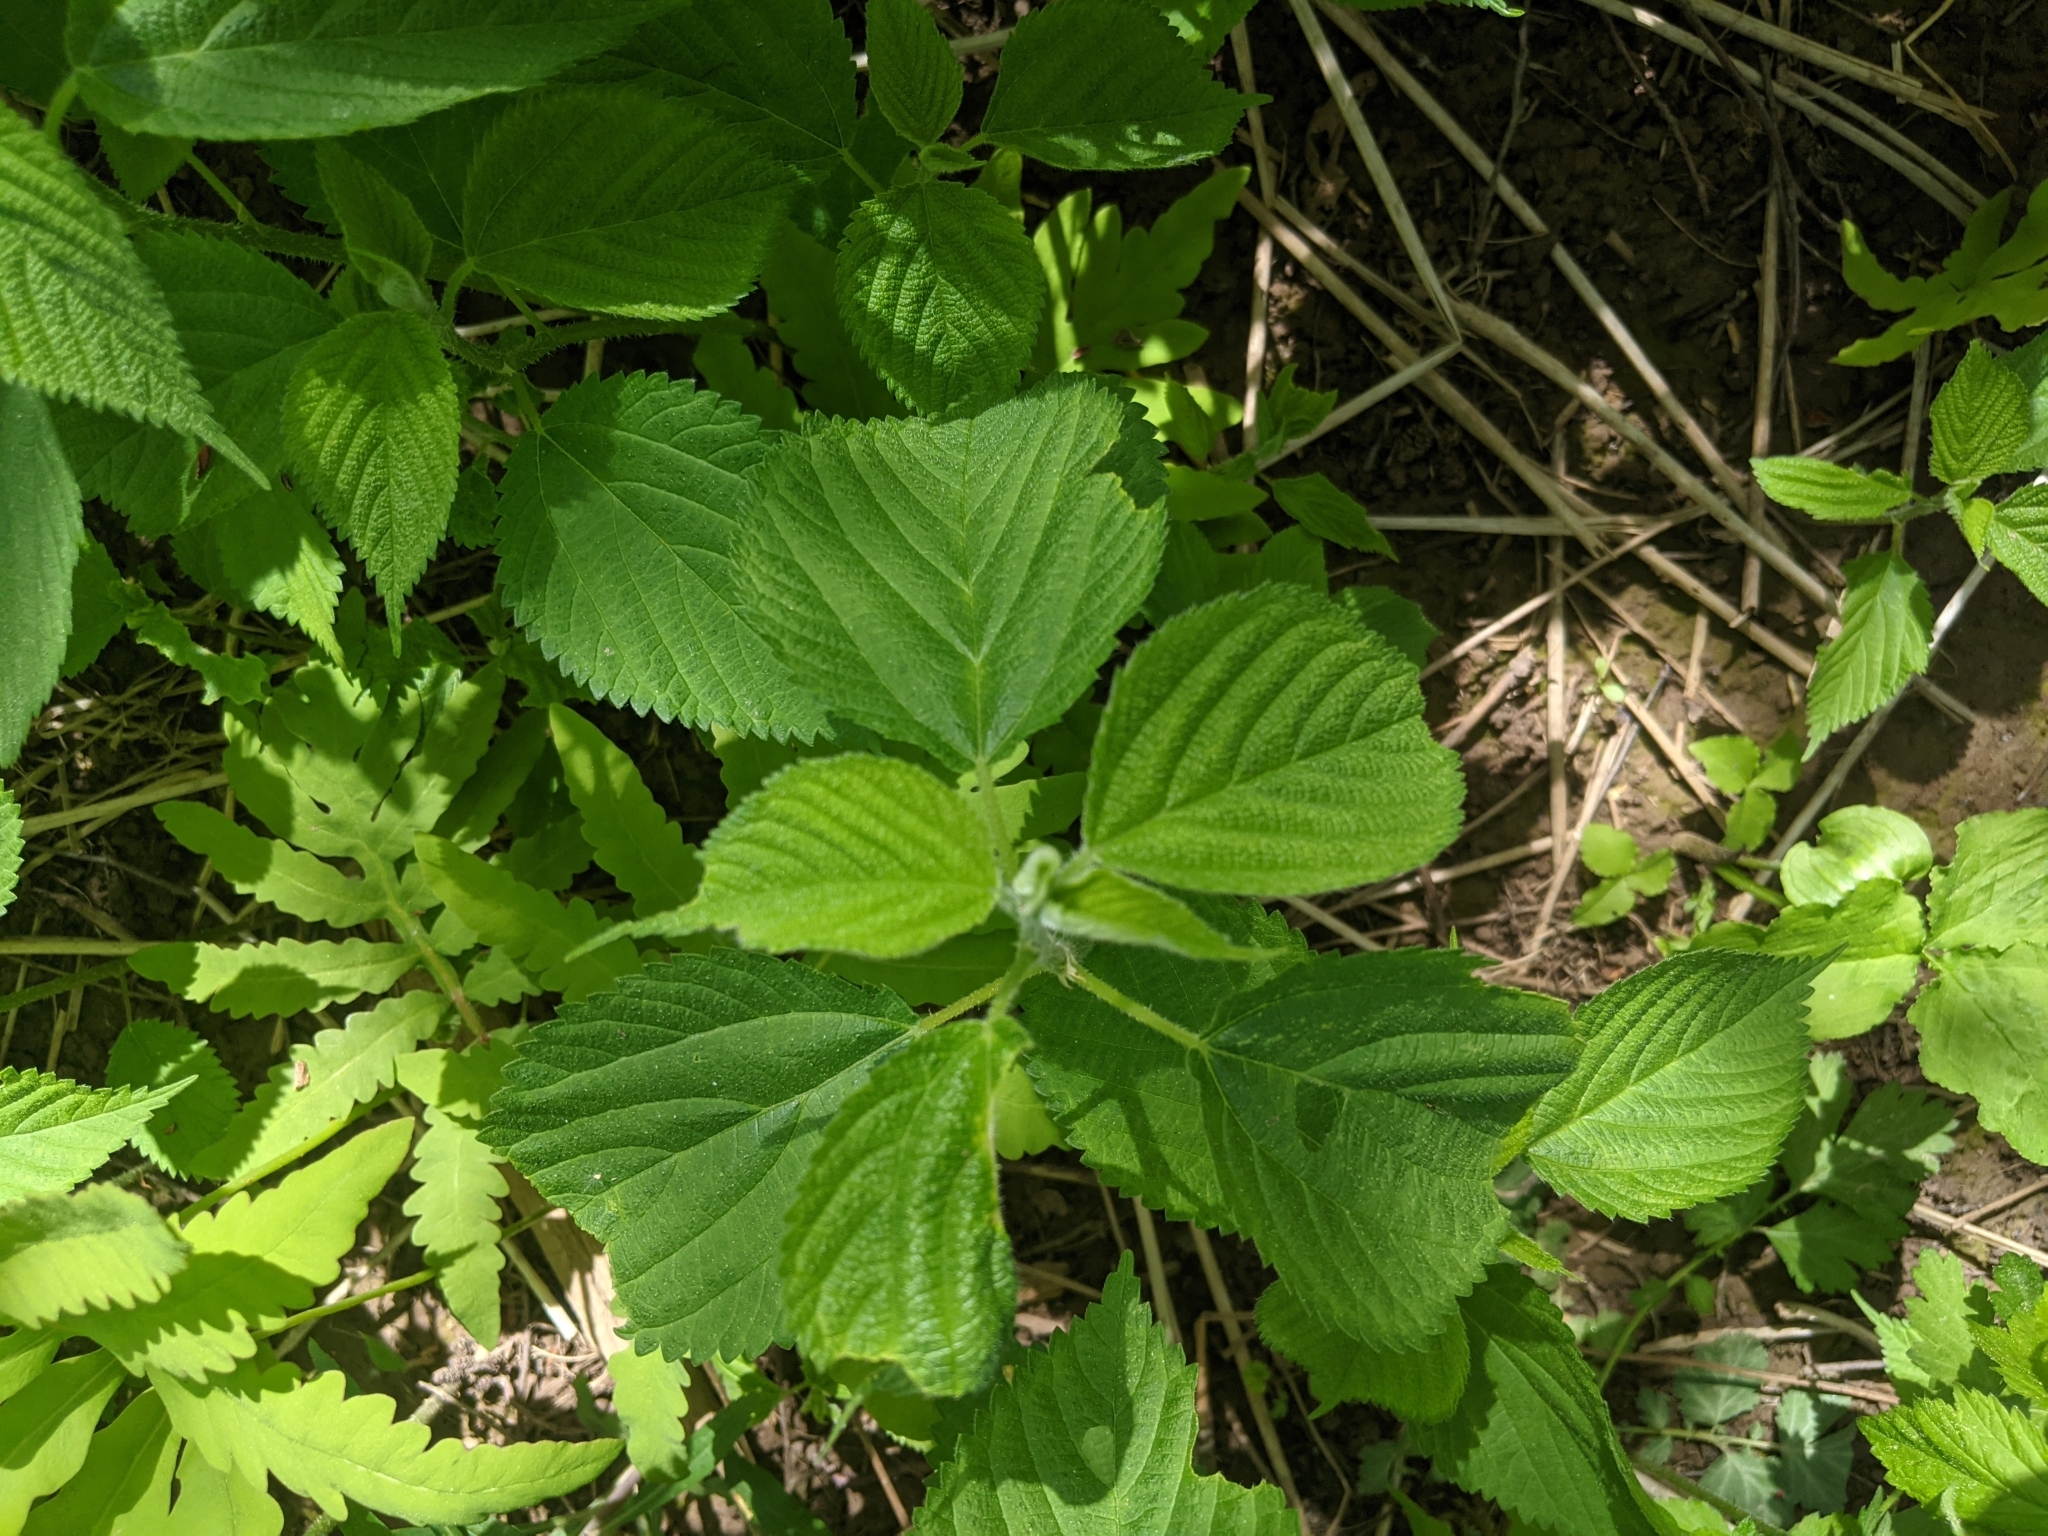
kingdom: Plantae
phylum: Tracheophyta
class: Magnoliopsida
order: Rosales
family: Urticaceae
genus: Laportea
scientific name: Laportea canadensis
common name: Canada nettle
